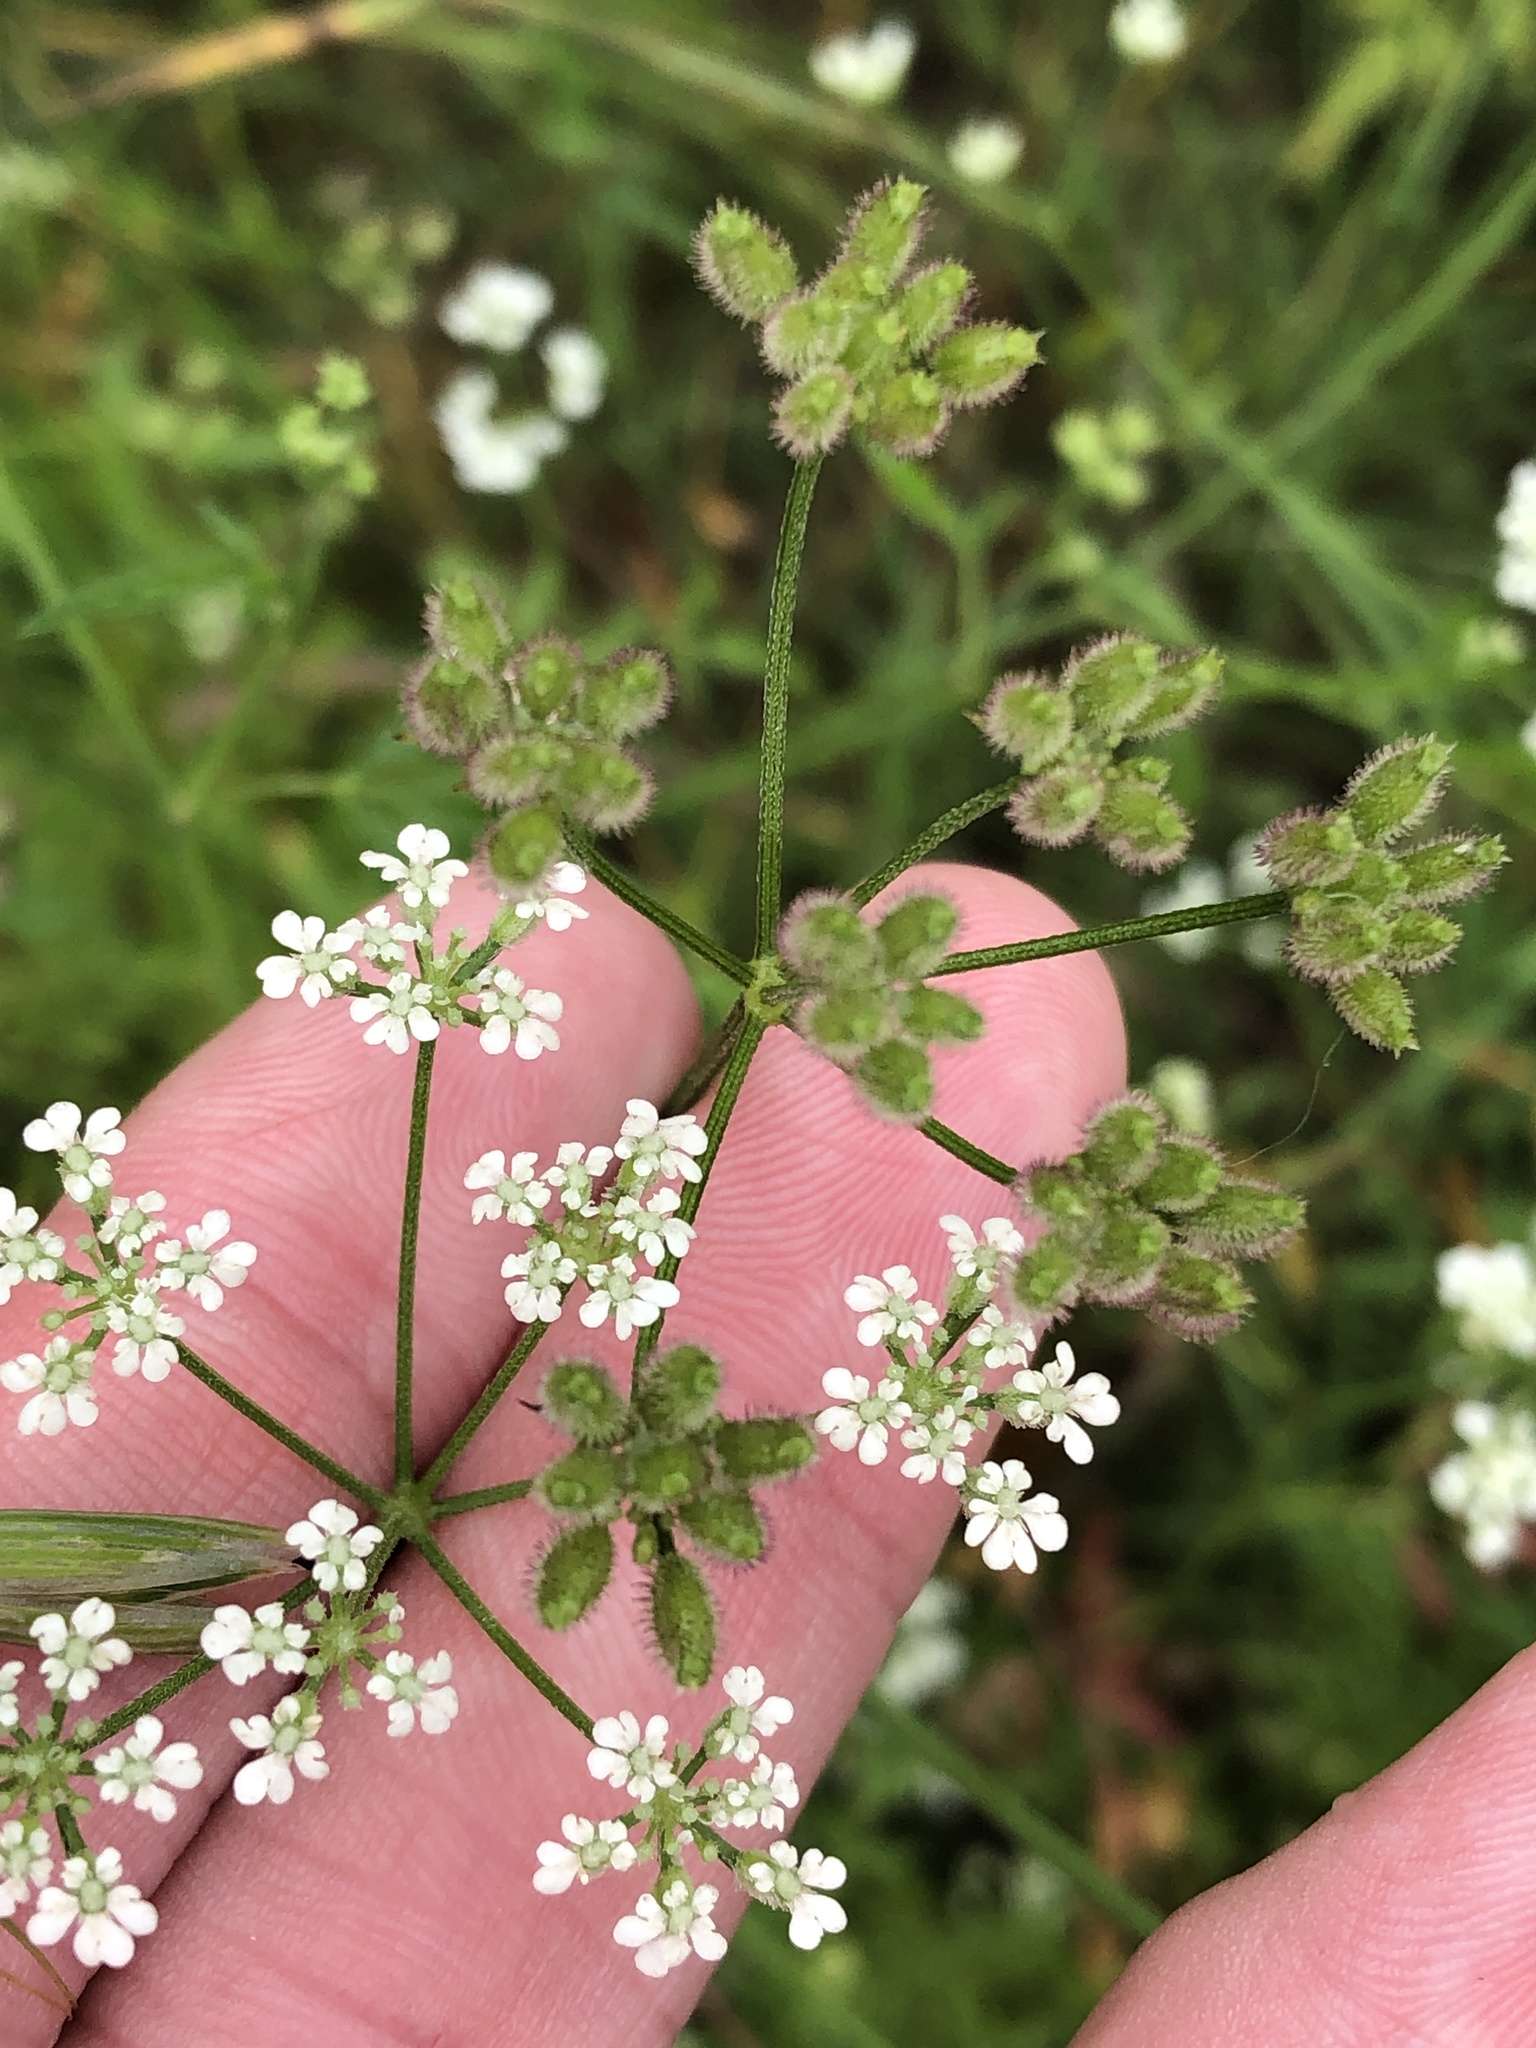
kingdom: Plantae
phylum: Tracheophyta
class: Magnoliopsida
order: Apiales
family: Apiaceae
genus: Torilis
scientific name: Torilis arvensis
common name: Spreading hedge-parsley
